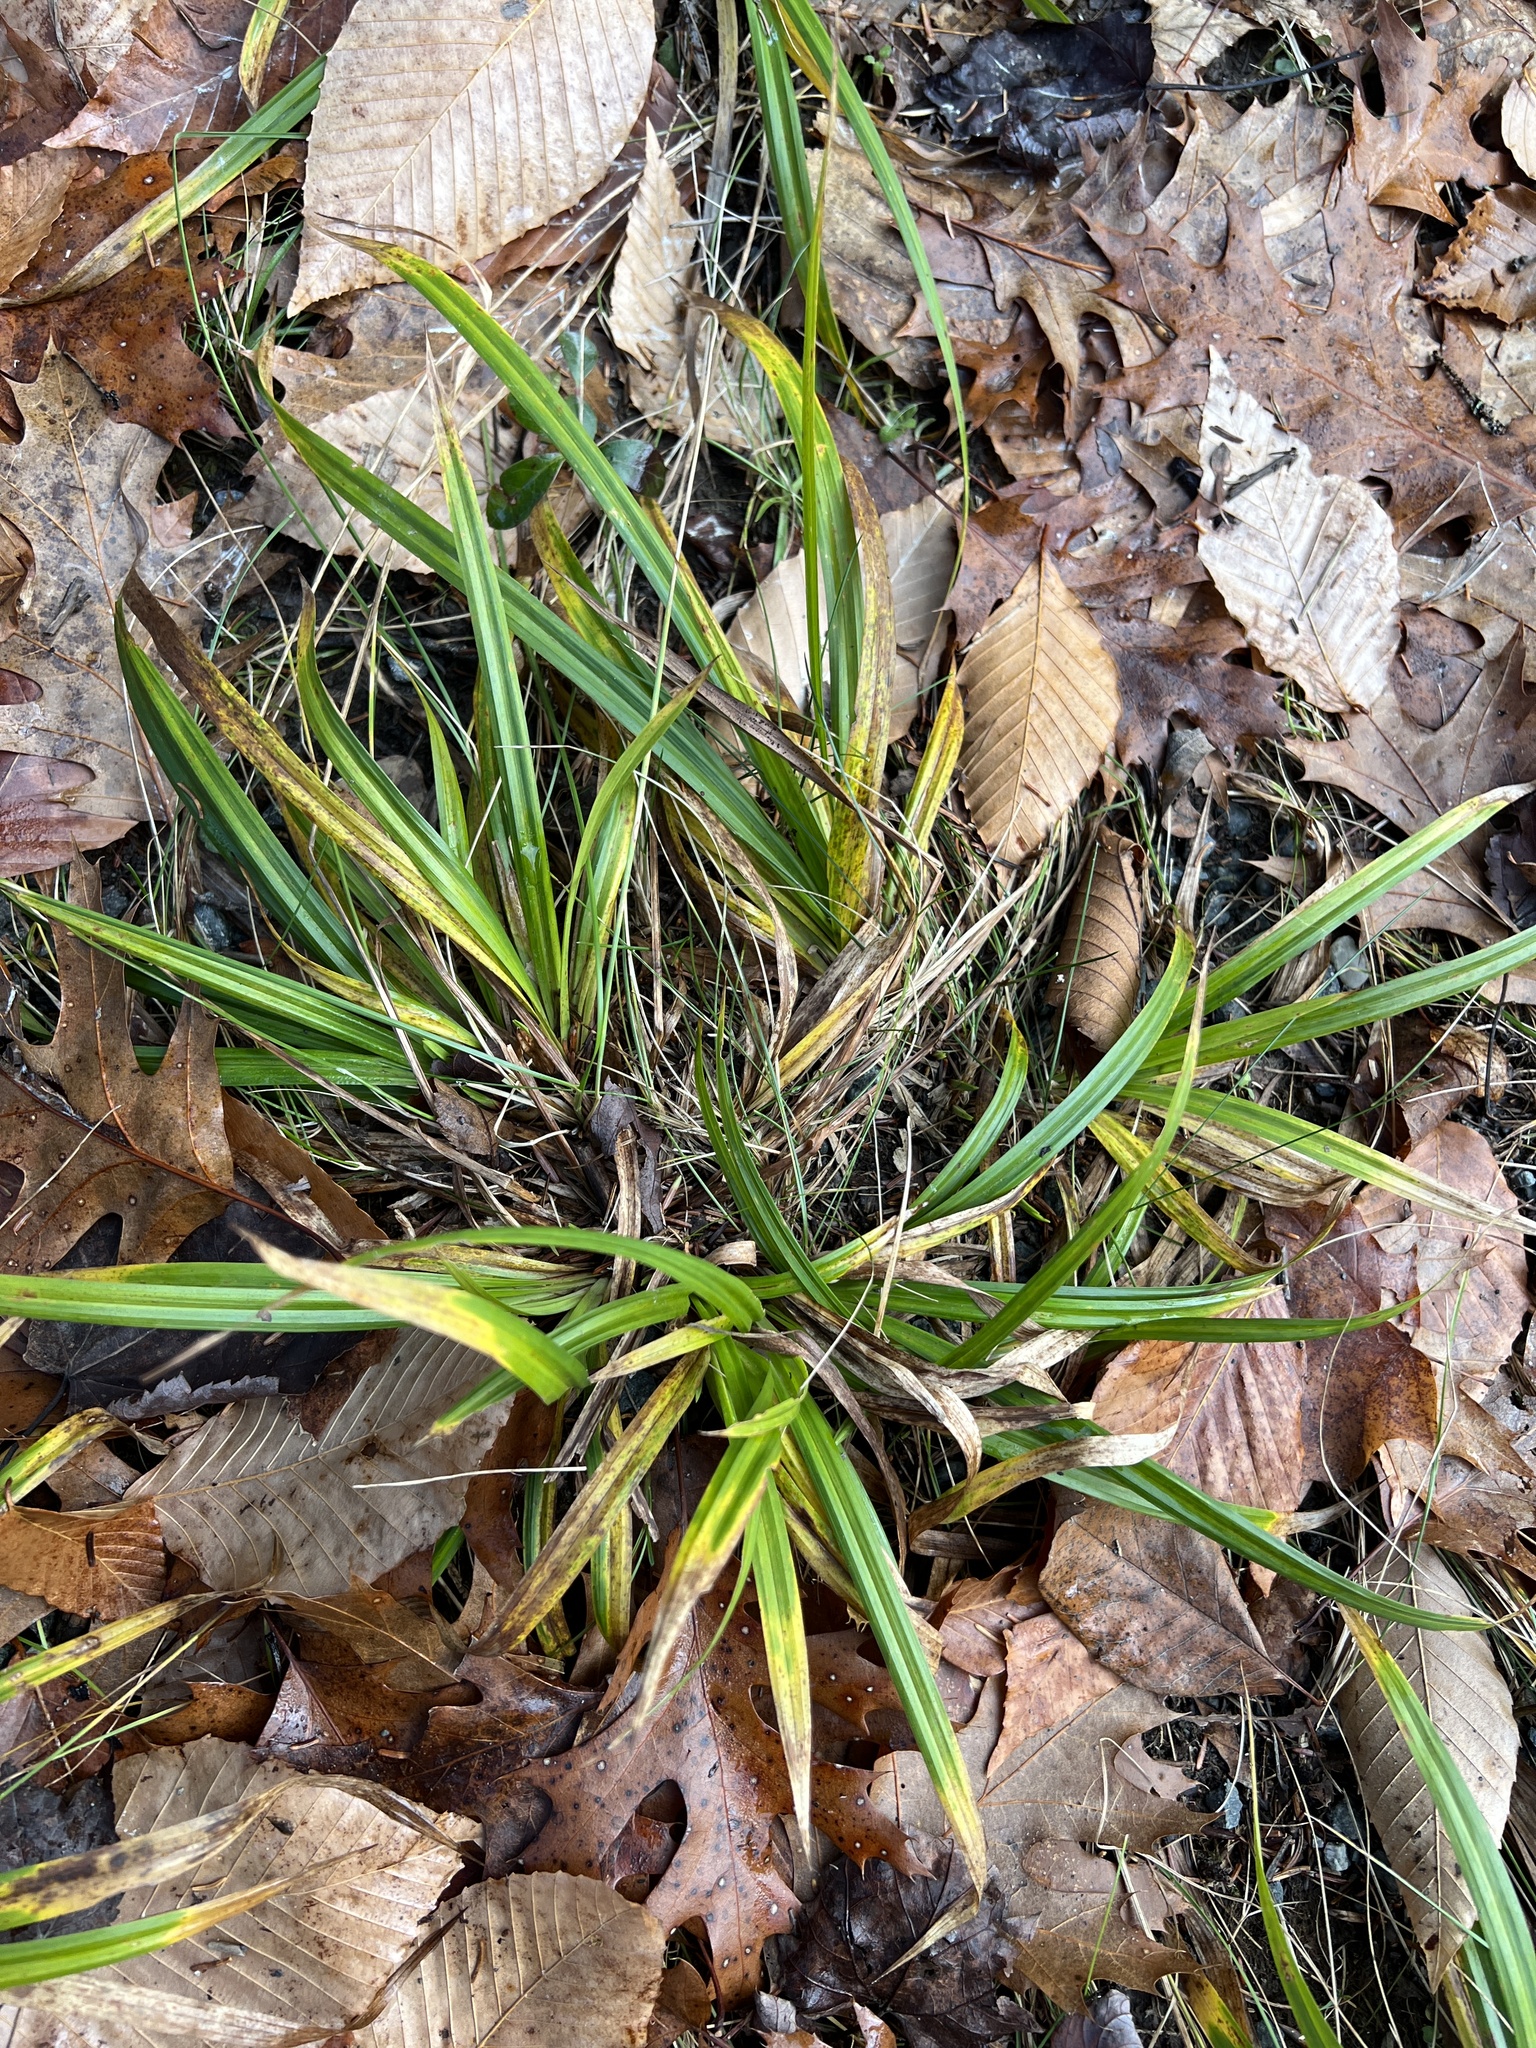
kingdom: Plantae
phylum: Tracheophyta
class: Liliopsida
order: Poales
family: Cyperaceae
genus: Carex
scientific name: Carex
